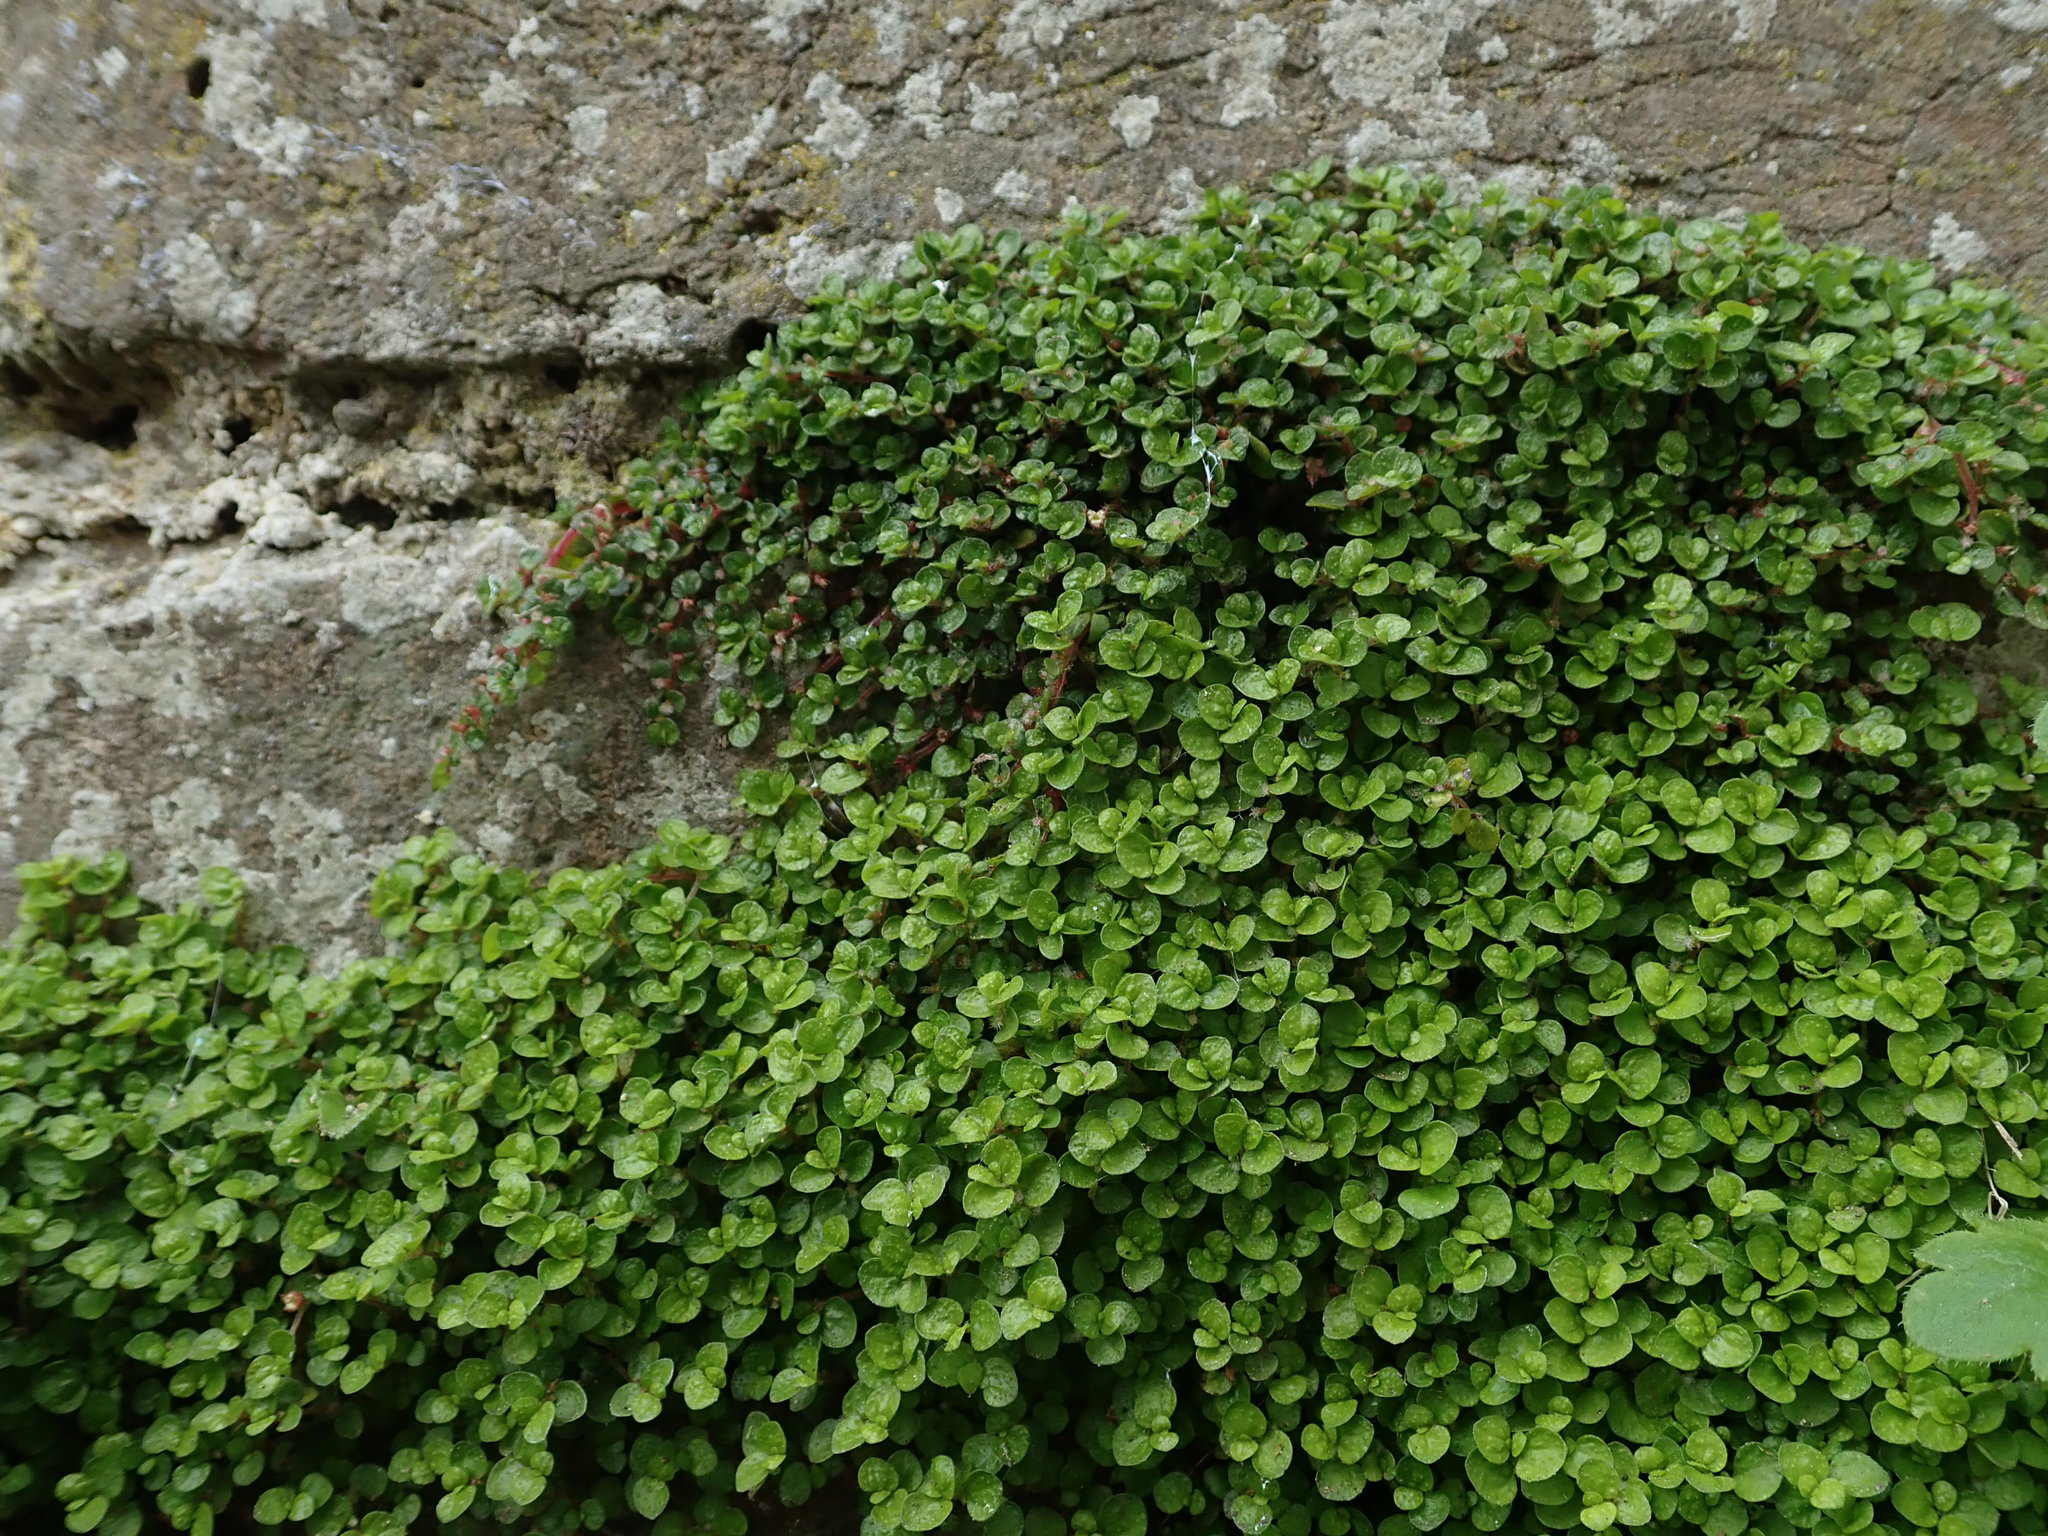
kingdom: Plantae
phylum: Tracheophyta
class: Magnoliopsida
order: Rosales
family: Urticaceae
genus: Soleirolia
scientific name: Soleirolia soleirolii
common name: Mind-your-own-business
